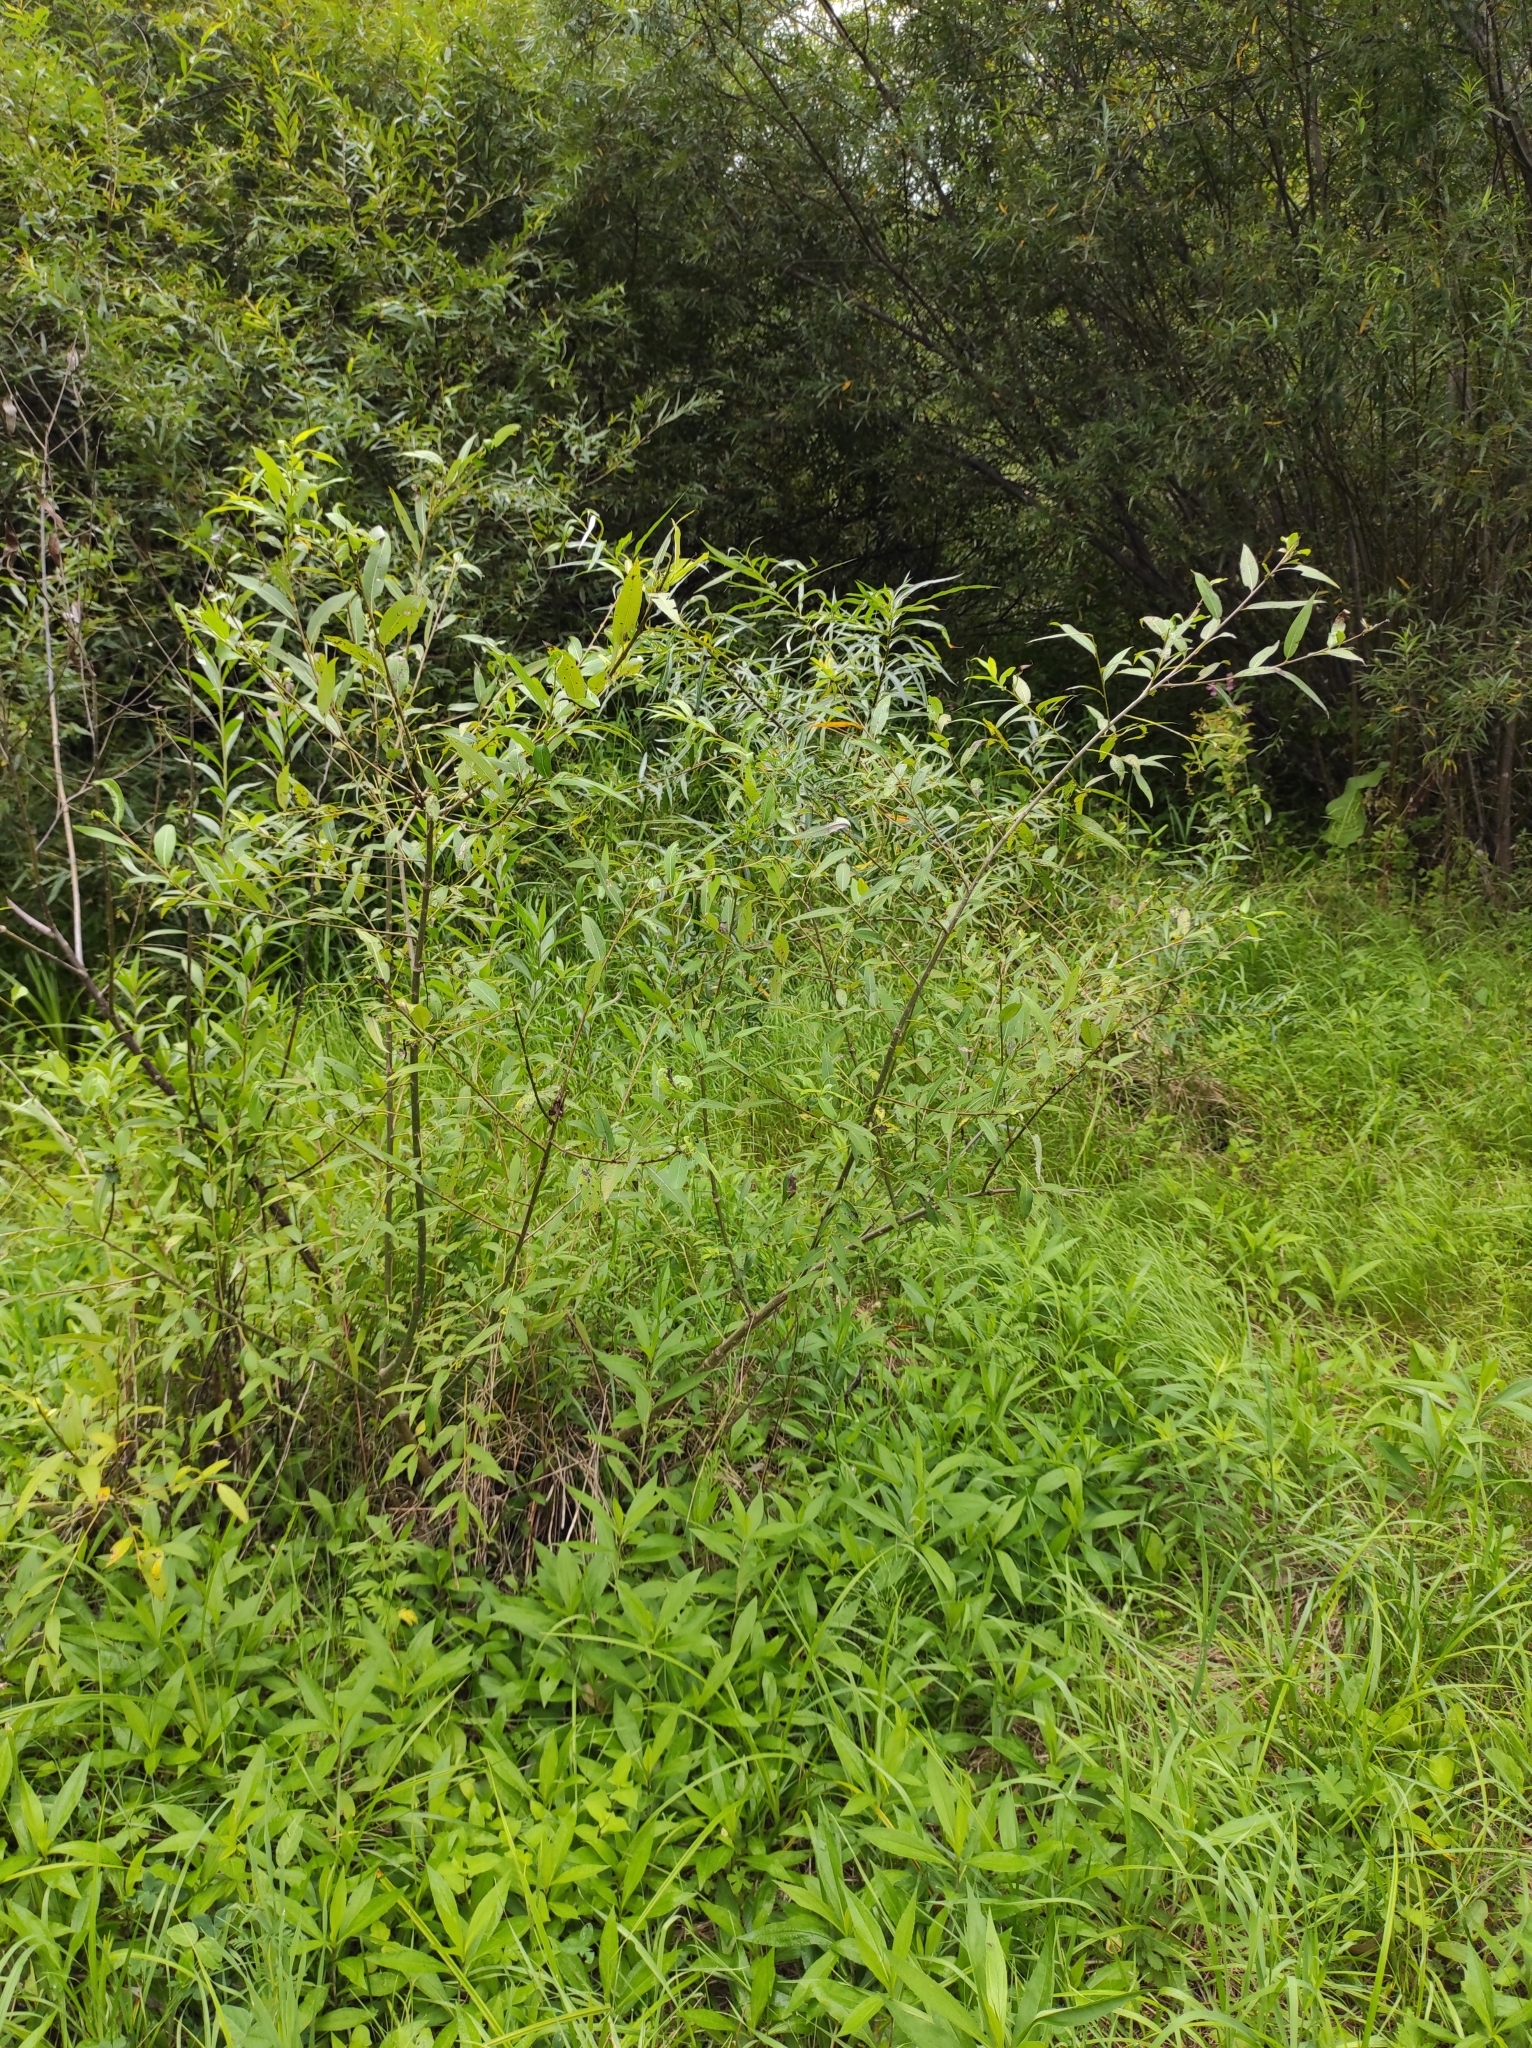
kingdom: Plantae
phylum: Tracheophyta
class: Magnoliopsida
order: Malpighiales
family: Salicaceae
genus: Salix
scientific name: Salix pierotii
